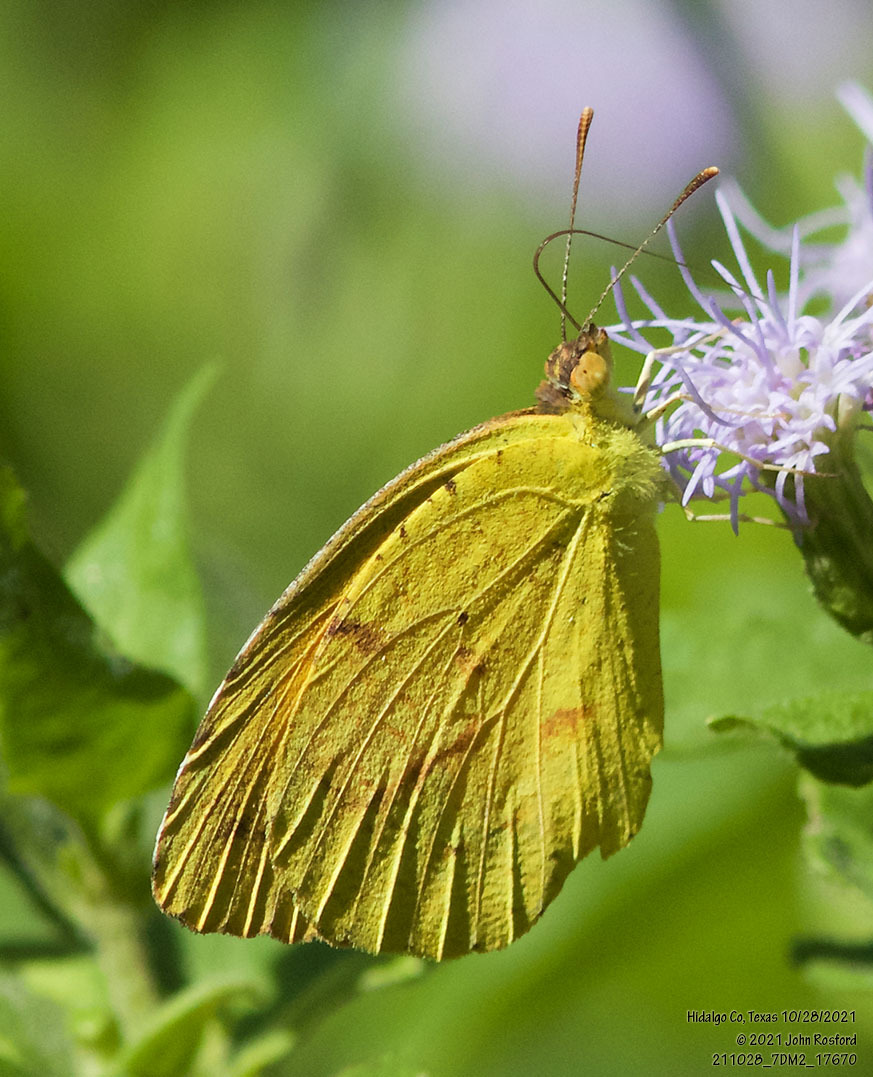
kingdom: Animalia
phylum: Arthropoda
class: Insecta
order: Lepidoptera
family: Pieridae
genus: Abaeis
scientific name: Abaeis nicippe
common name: Sleepy orange
